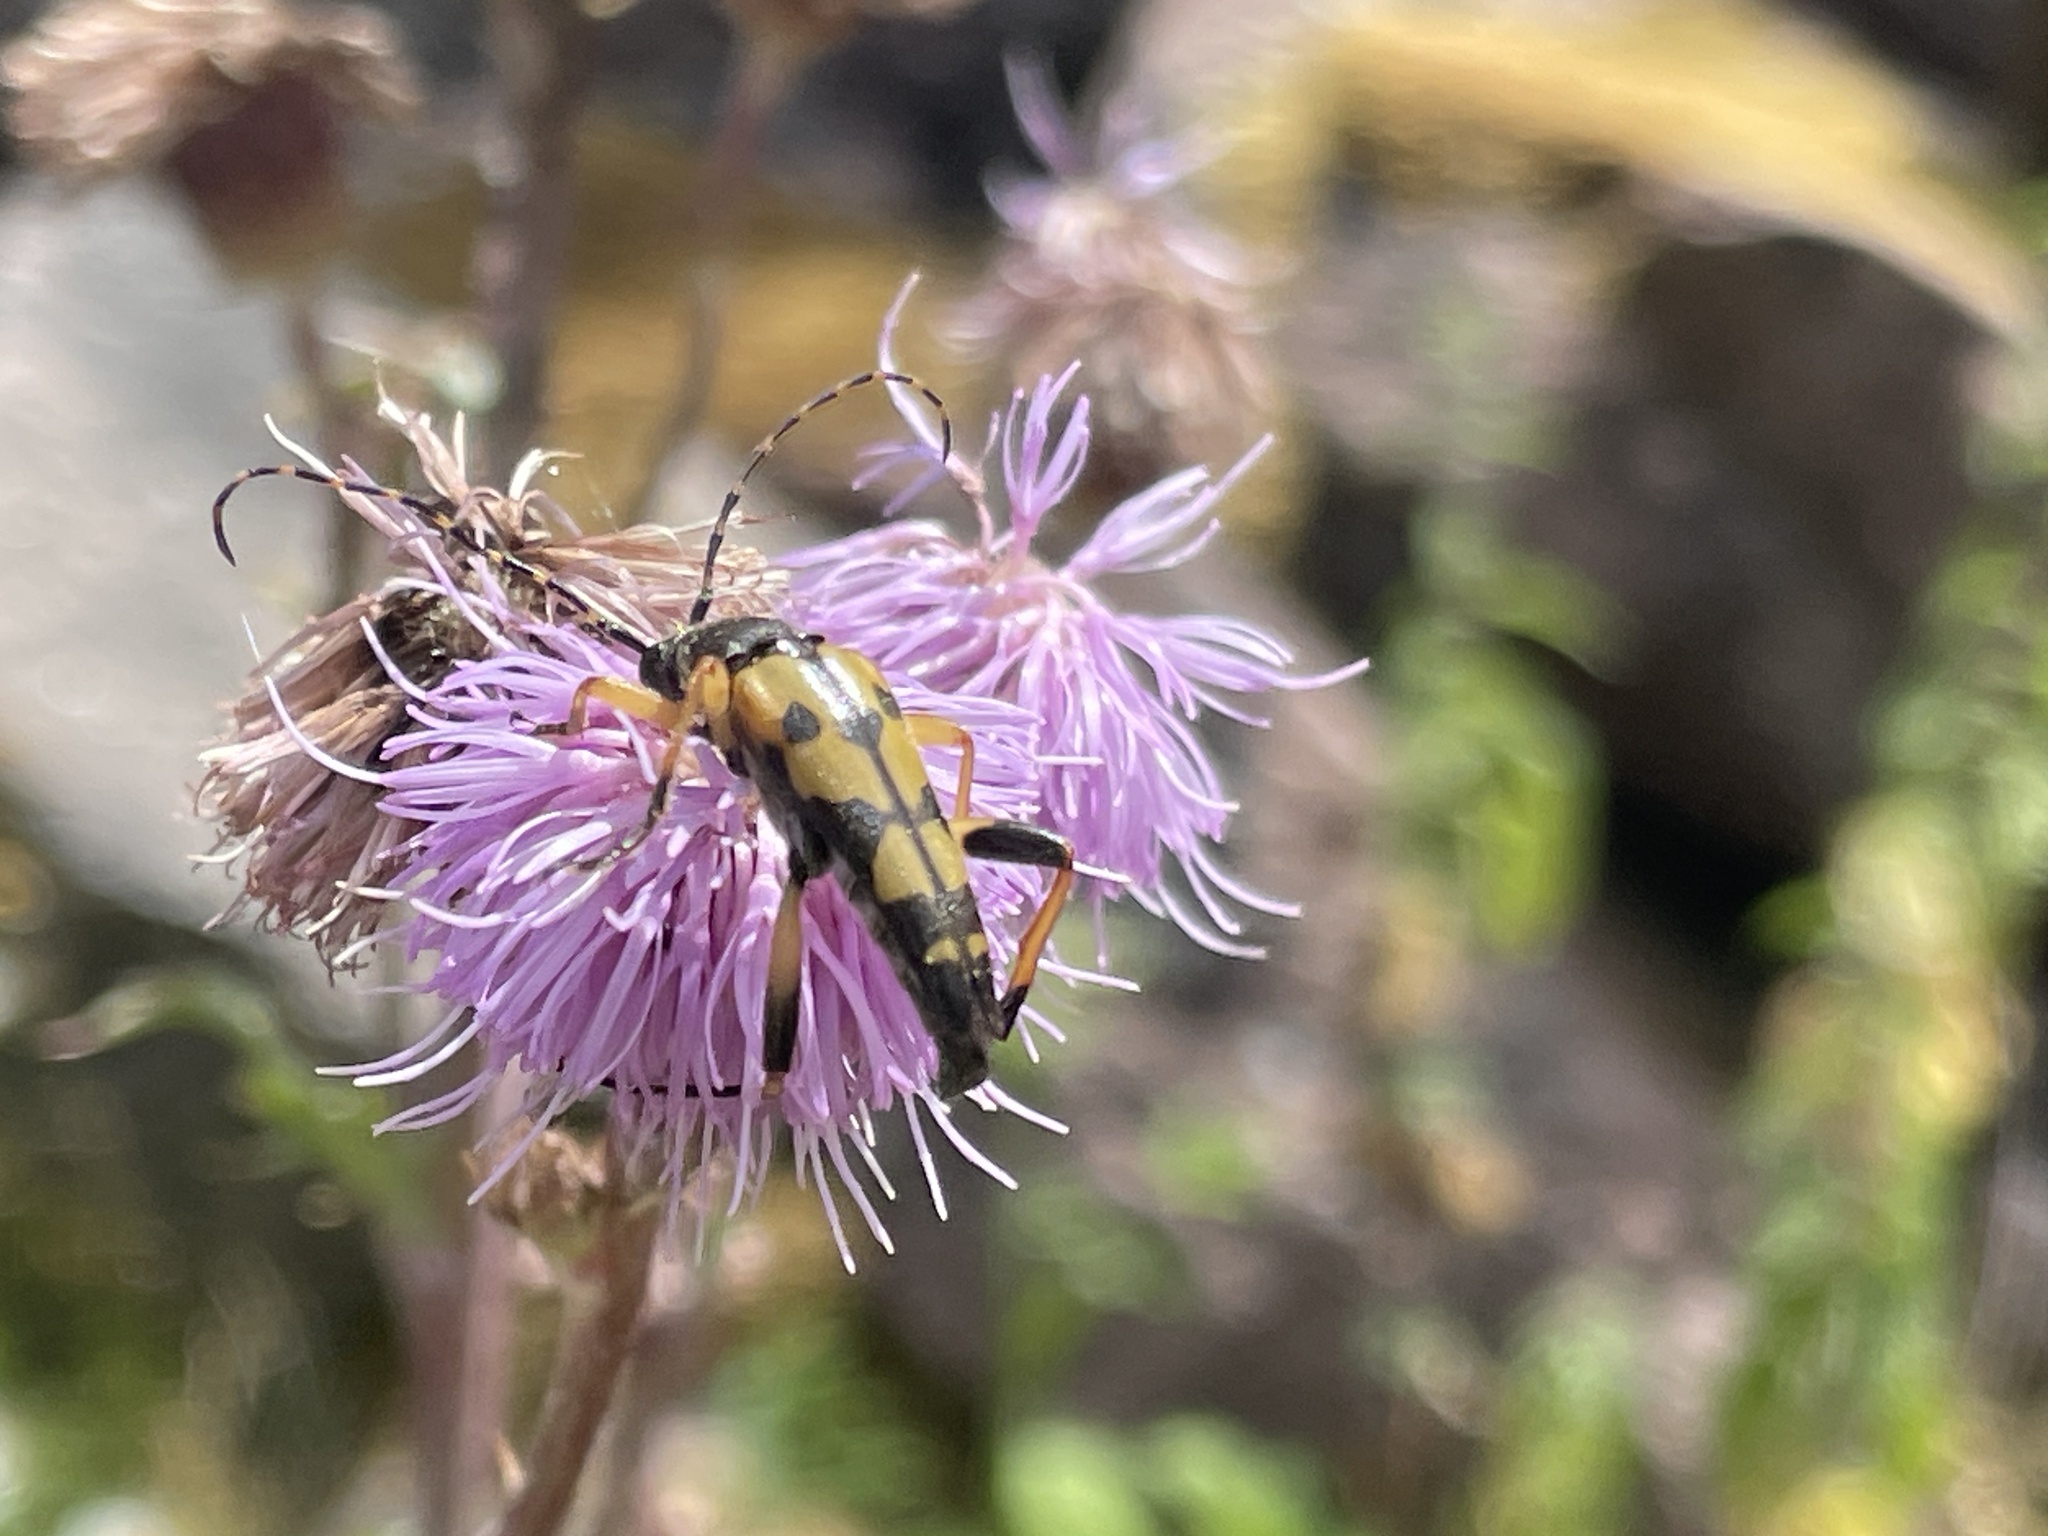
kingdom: Animalia
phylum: Arthropoda
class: Insecta
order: Coleoptera
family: Cerambycidae
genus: Rutpela
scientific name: Rutpela maculata
